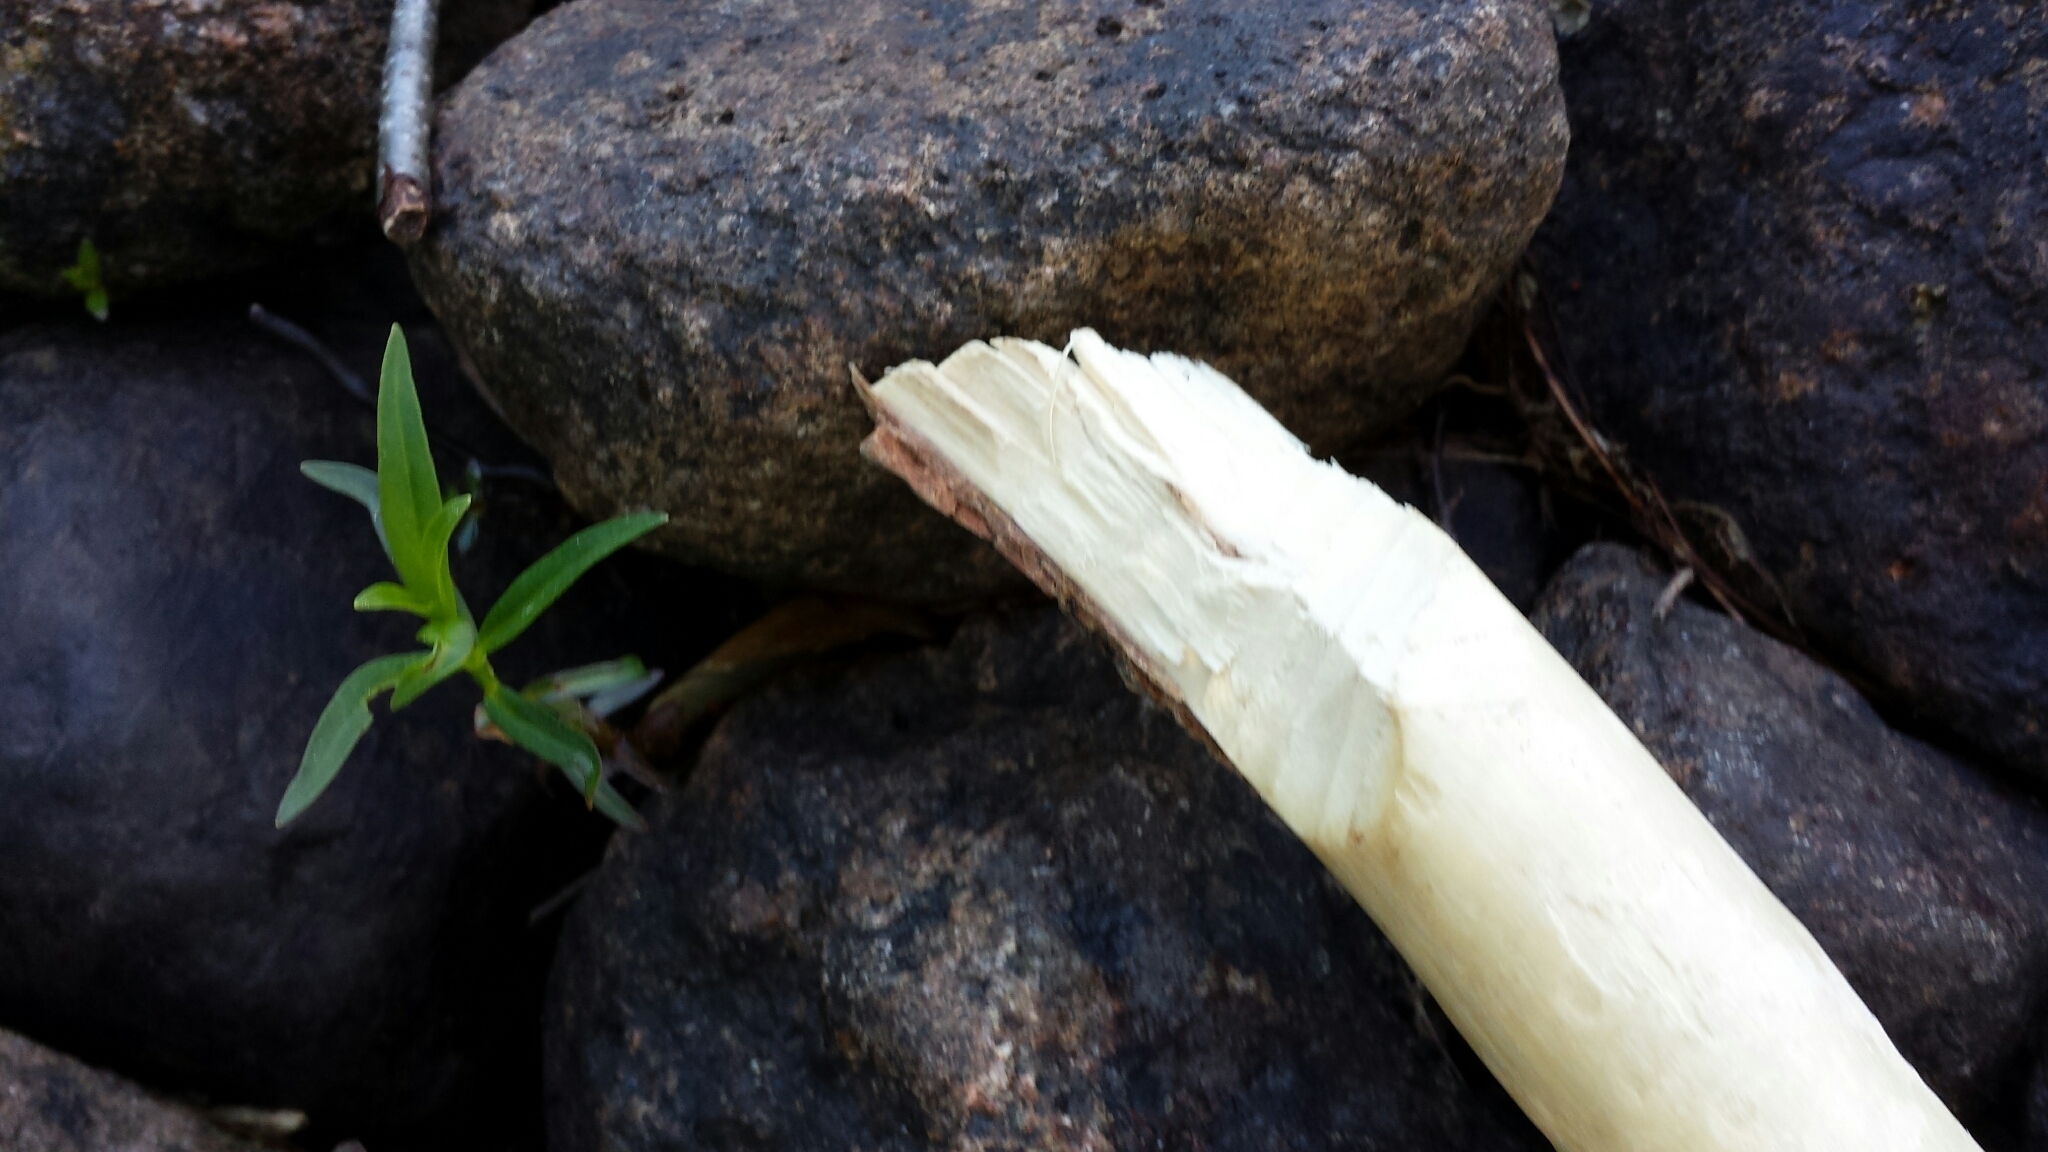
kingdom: Animalia
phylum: Chordata
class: Mammalia
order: Rodentia
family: Castoridae
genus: Castor
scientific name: Castor canadensis
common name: American beaver
